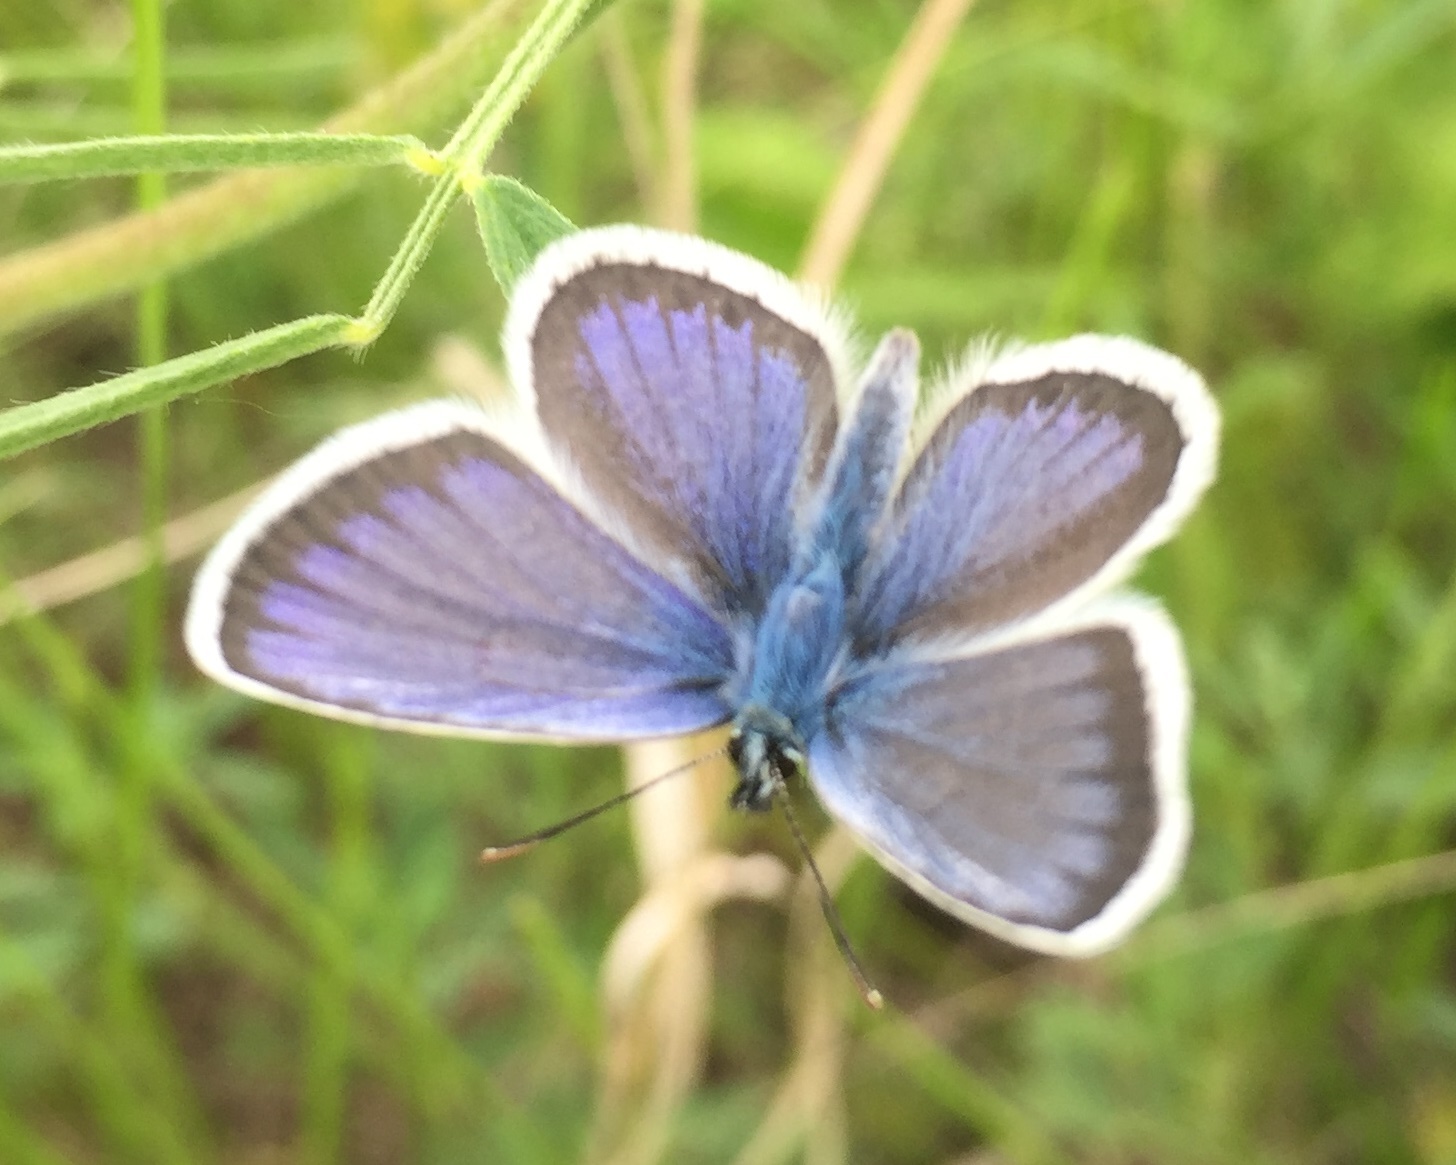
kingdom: Animalia
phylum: Arthropoda
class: Insecta
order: Lepidoptera
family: Lycaenidae
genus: Plebejus
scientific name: Plebejus argus
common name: Silver-studded blue
